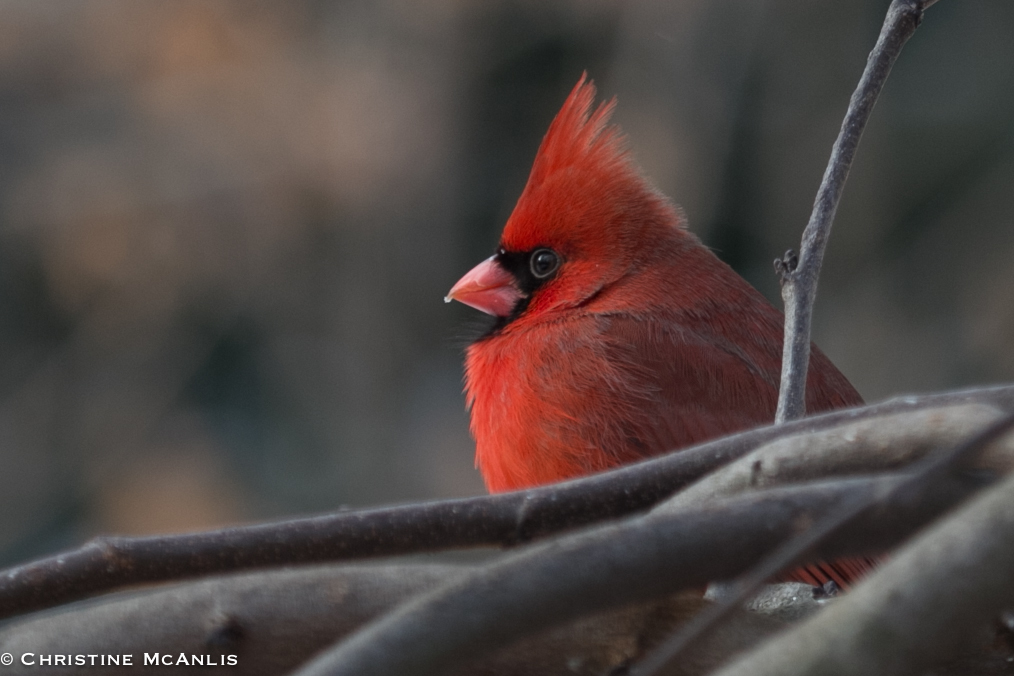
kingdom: Animalia
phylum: Chordata
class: Aves
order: Passeriformes
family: Cardinalidae
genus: Cardinalis
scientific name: Cardinalis cardinalis
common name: Northern cardinal
